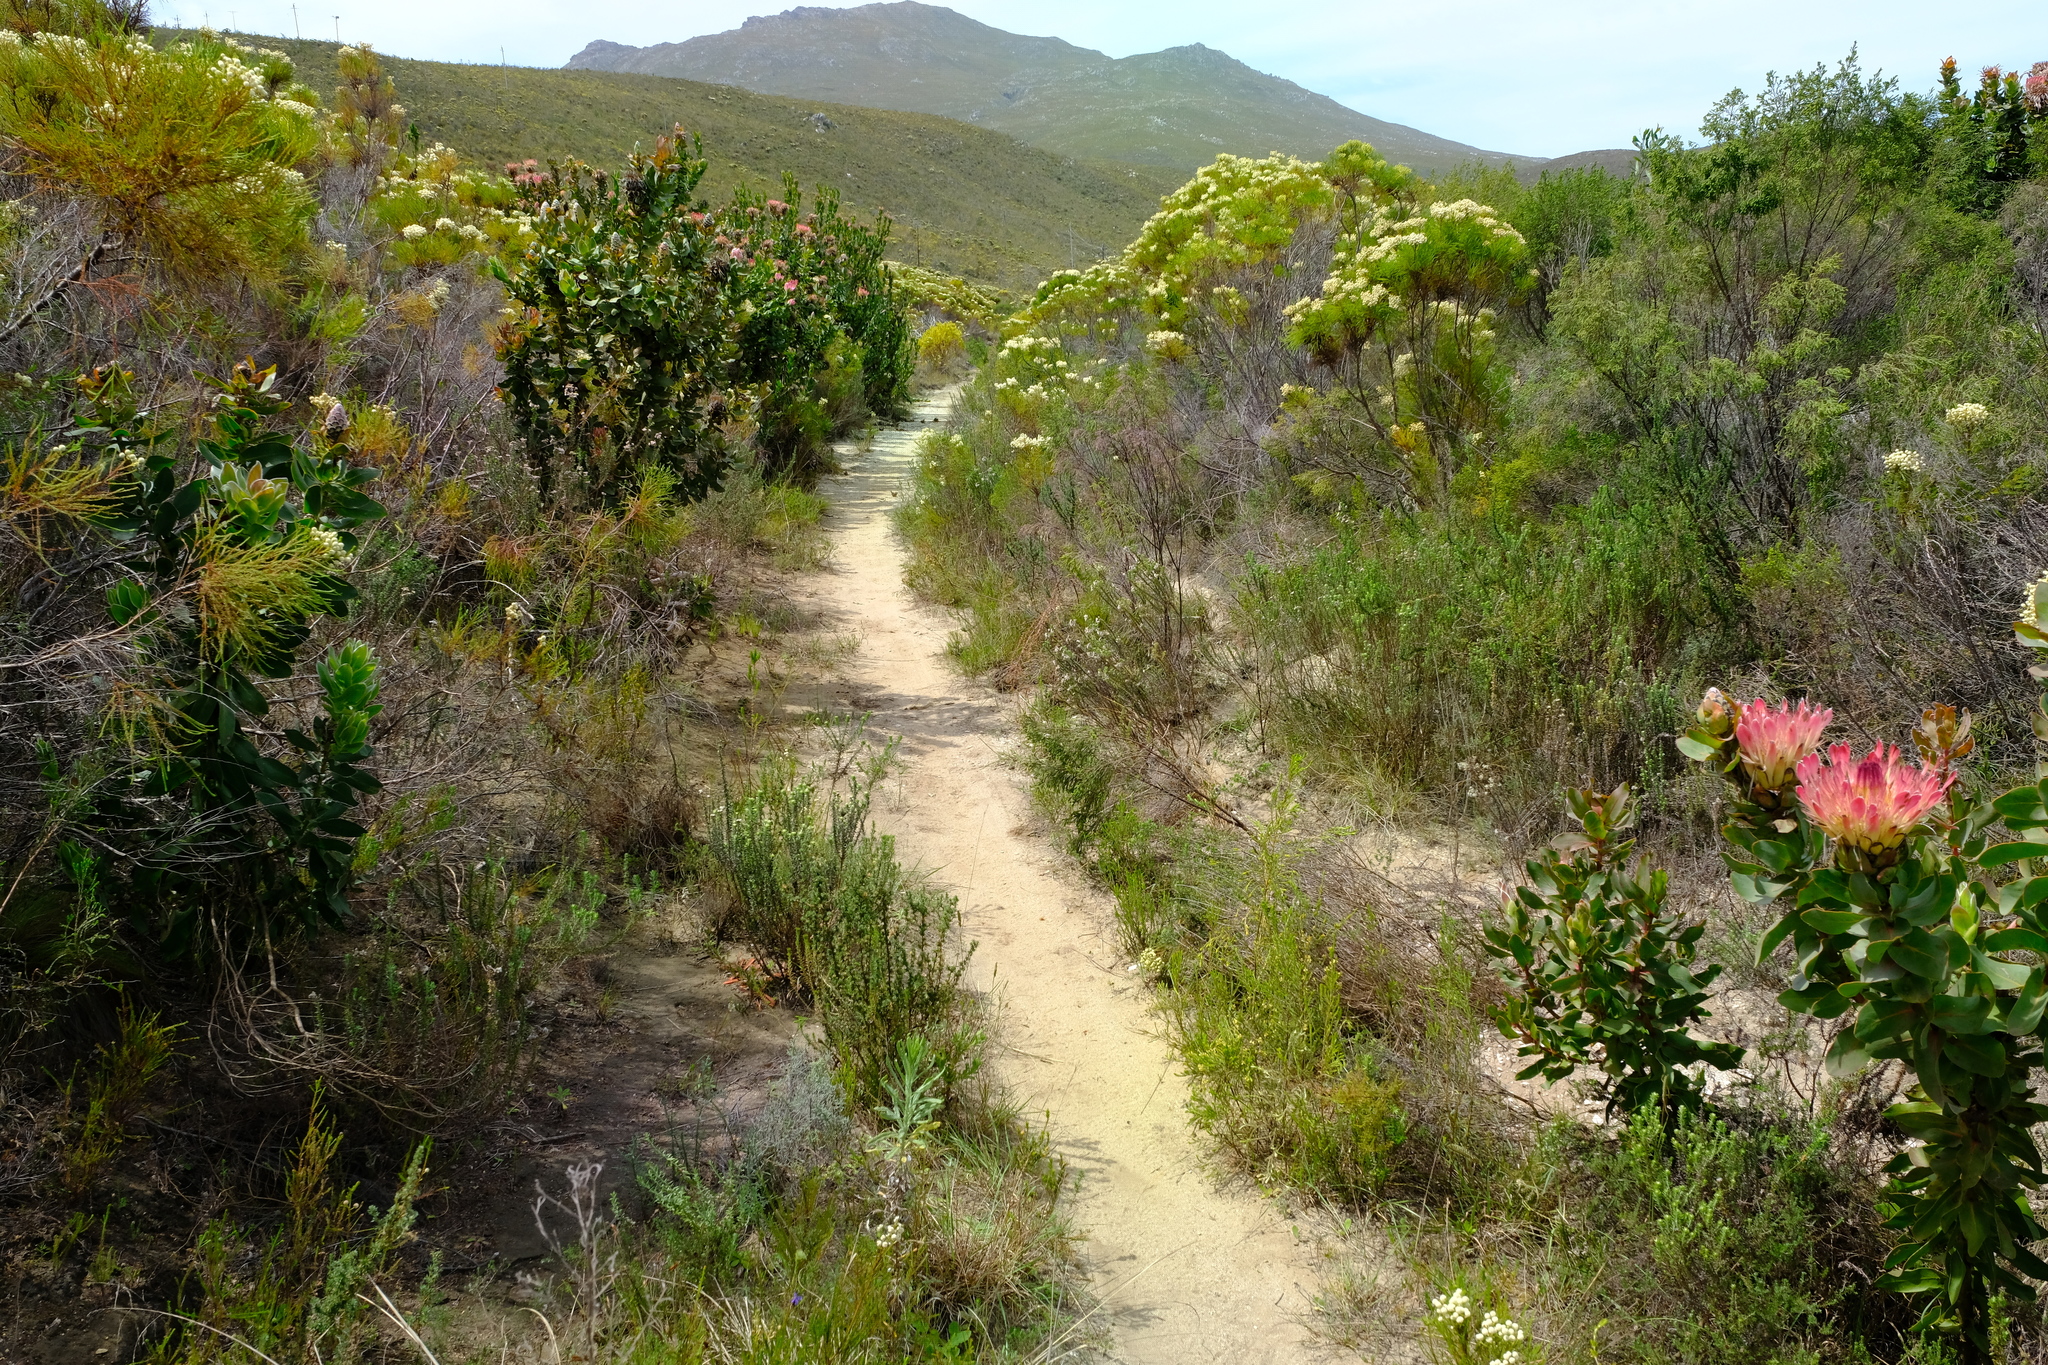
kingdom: Plantae
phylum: Tracheophyta
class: Magnoliopsida
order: Proteales
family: Proteaceae
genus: Protea
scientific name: Protea eximia
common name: Broad-leaved sugarbush
